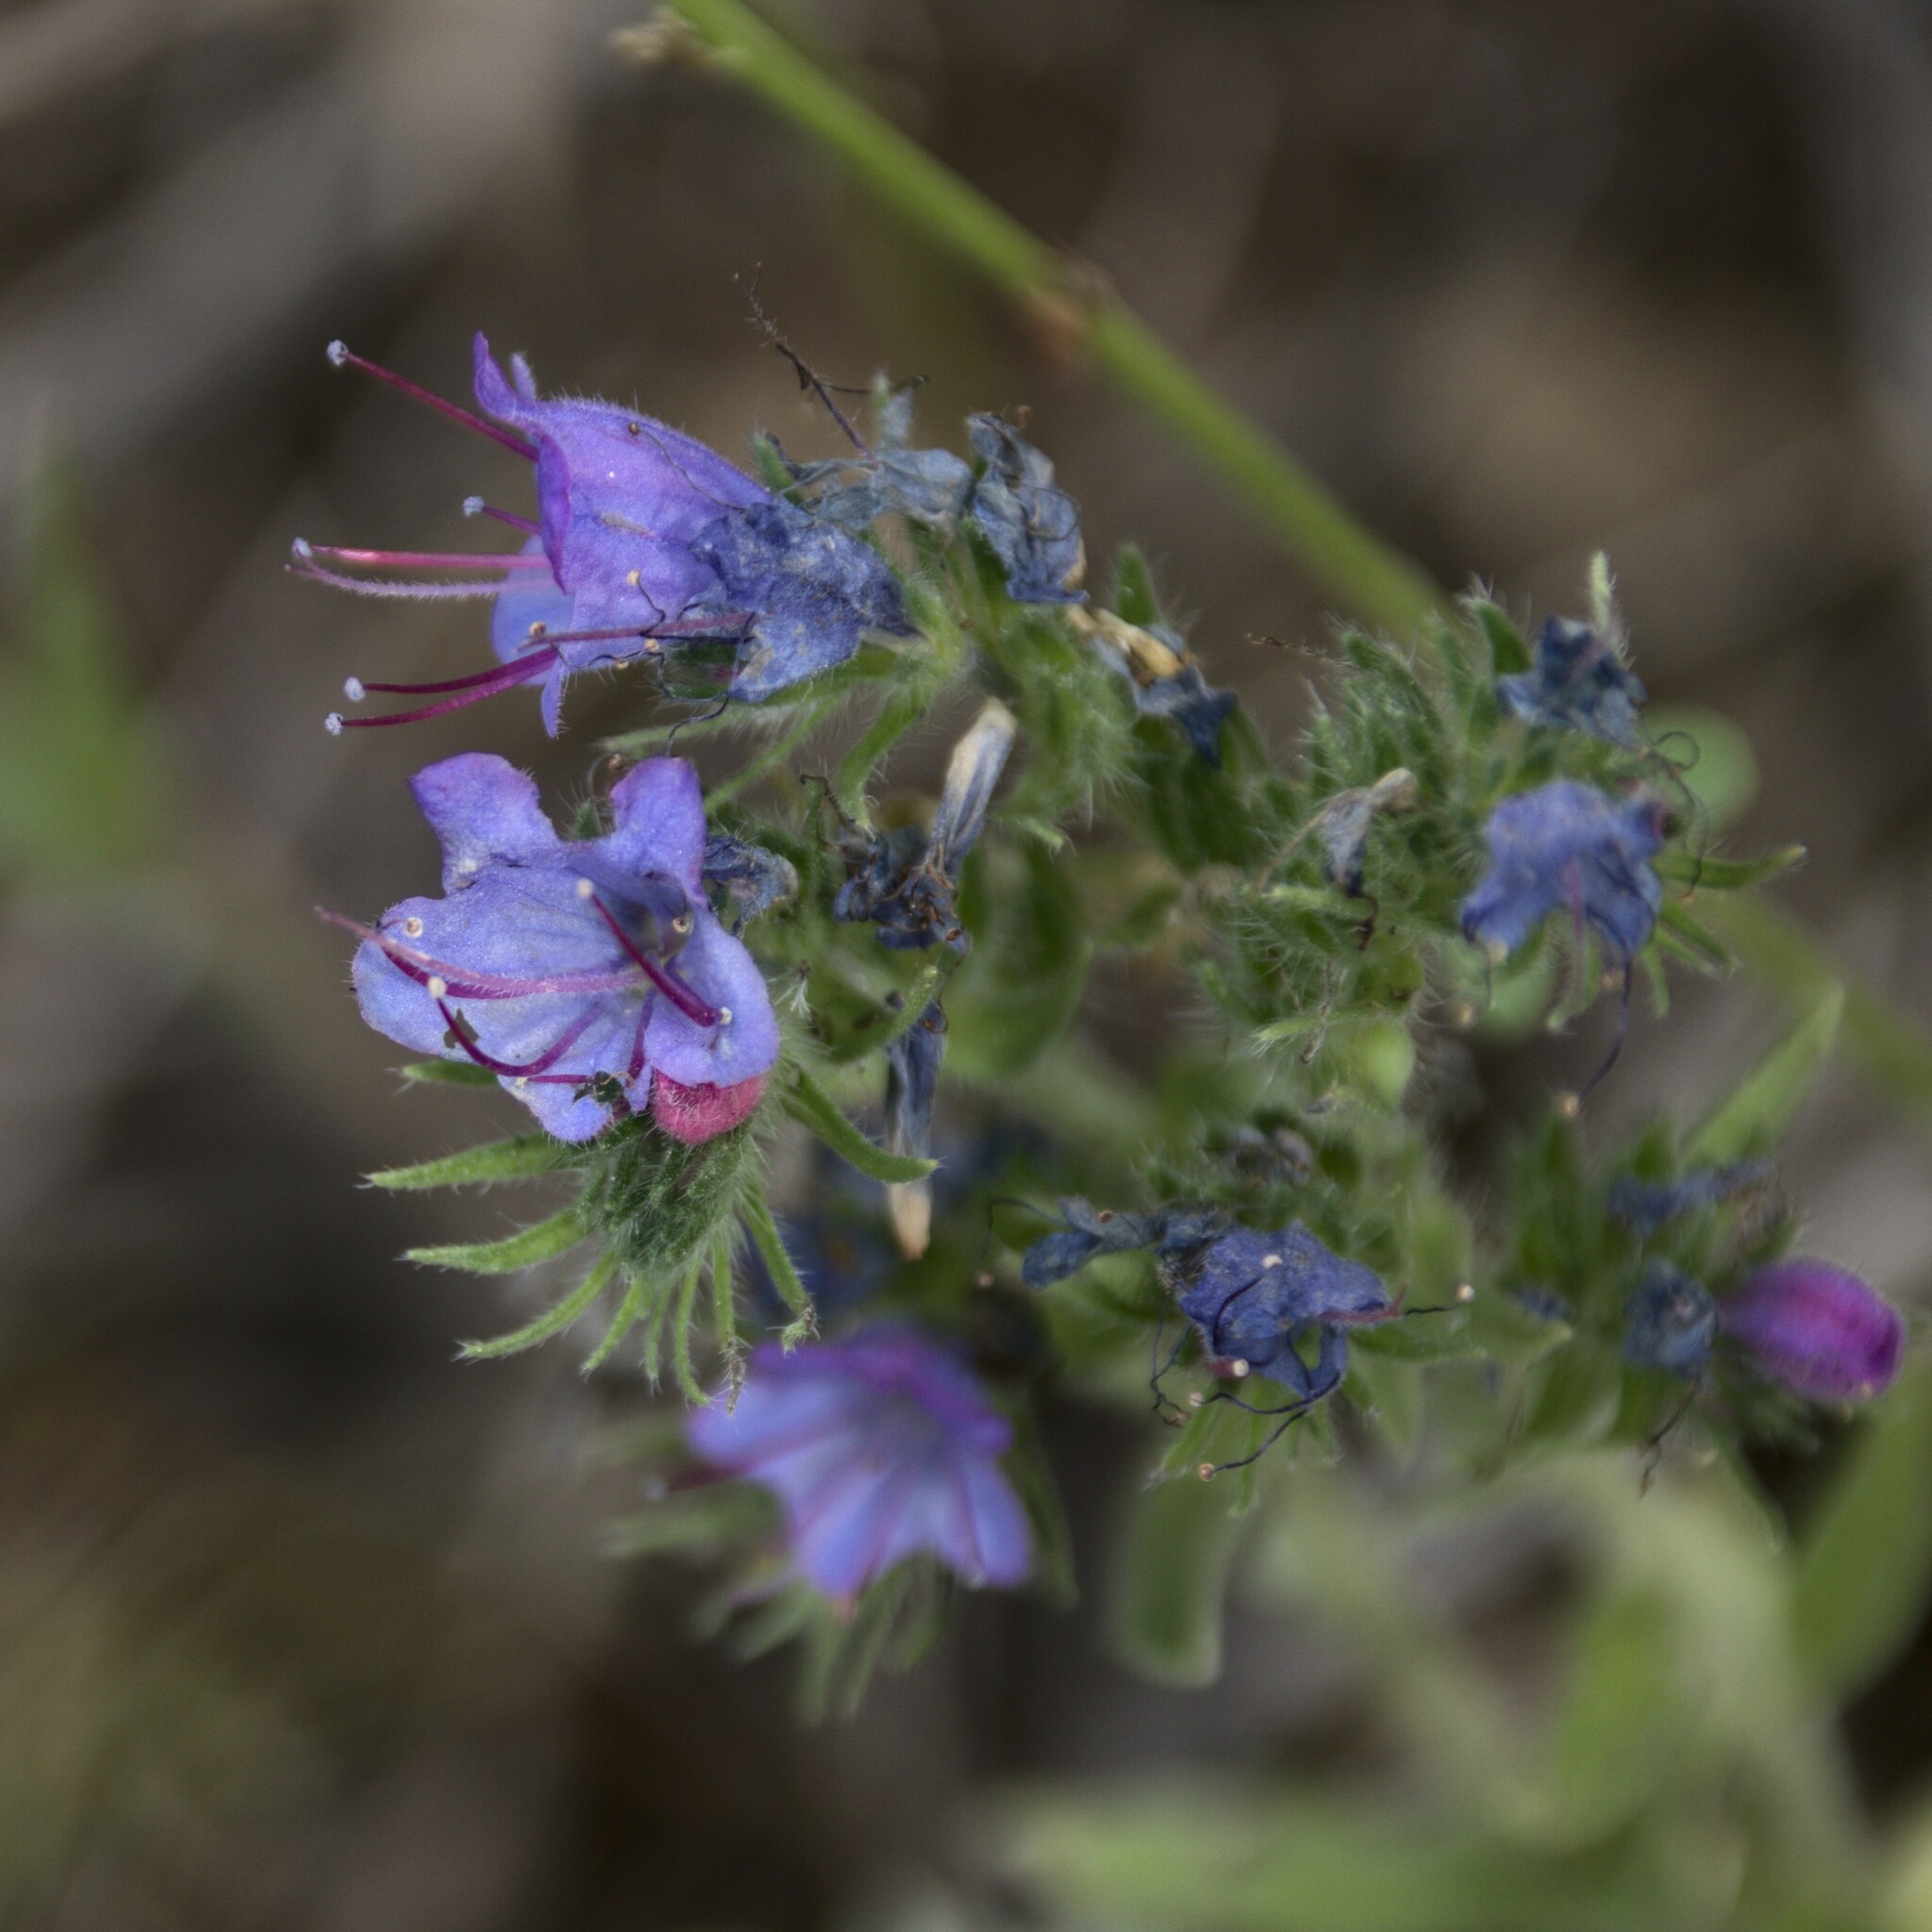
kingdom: Plantae
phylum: Tracheophyta
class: Magnoliopsida
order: Boraginales
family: Boraginaceae
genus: Echium
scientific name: Echium vulgare
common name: Common viper's bugloss
